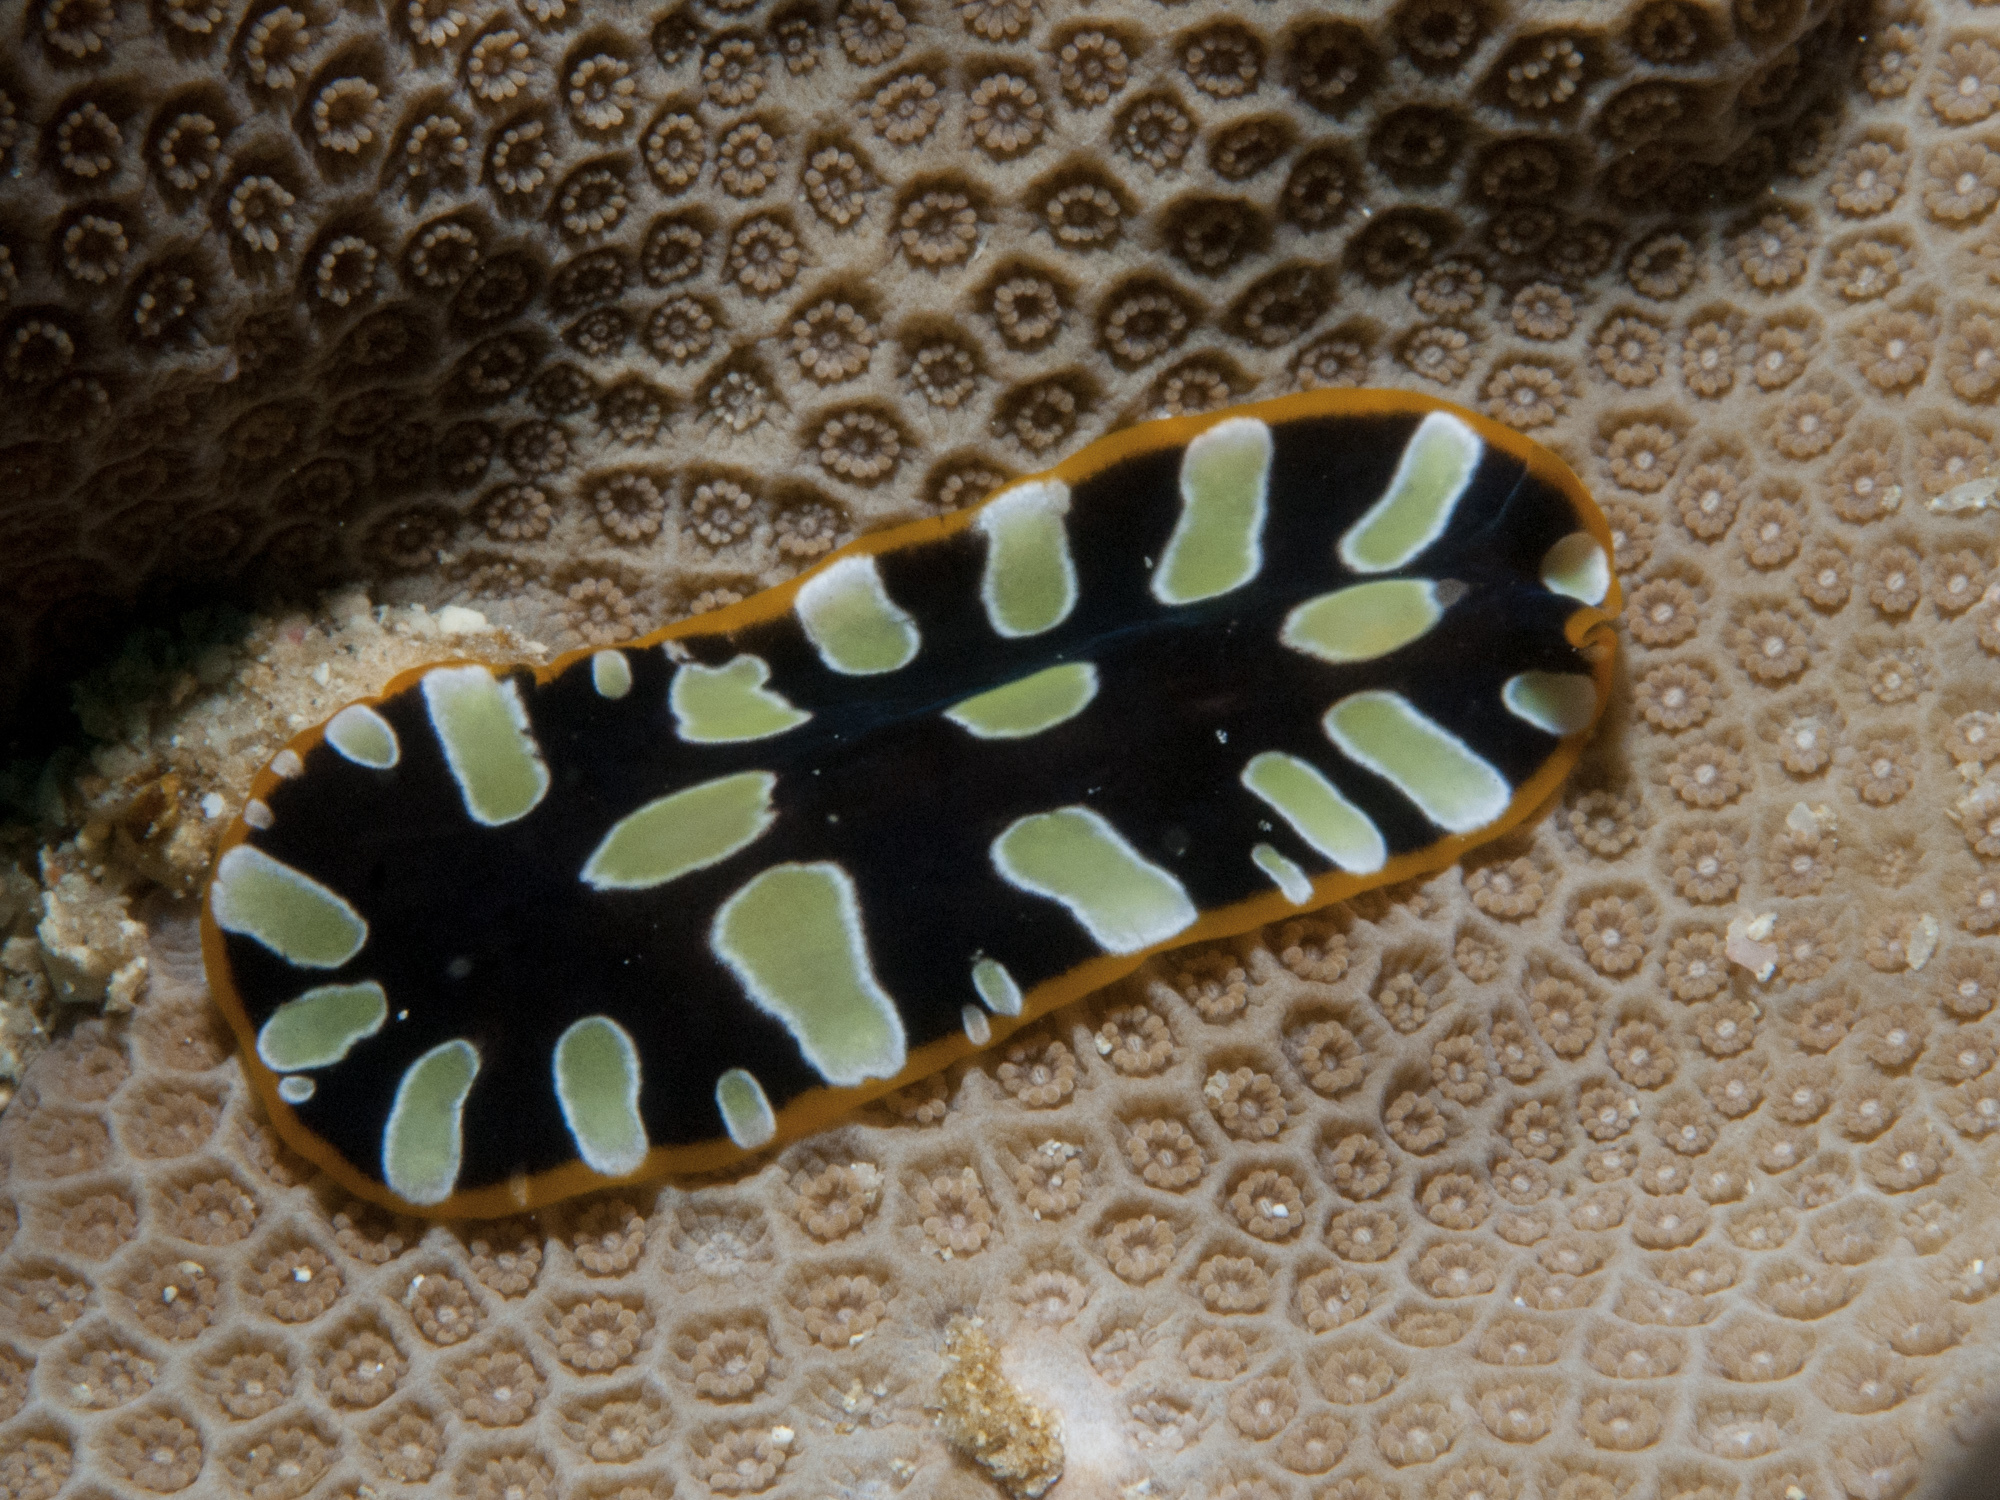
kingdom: Animalia
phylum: Platyhelminthes
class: Turbellaria
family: Pseudocerotidae
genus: Pseudoceros
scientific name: Pseudoceros scintillatus
